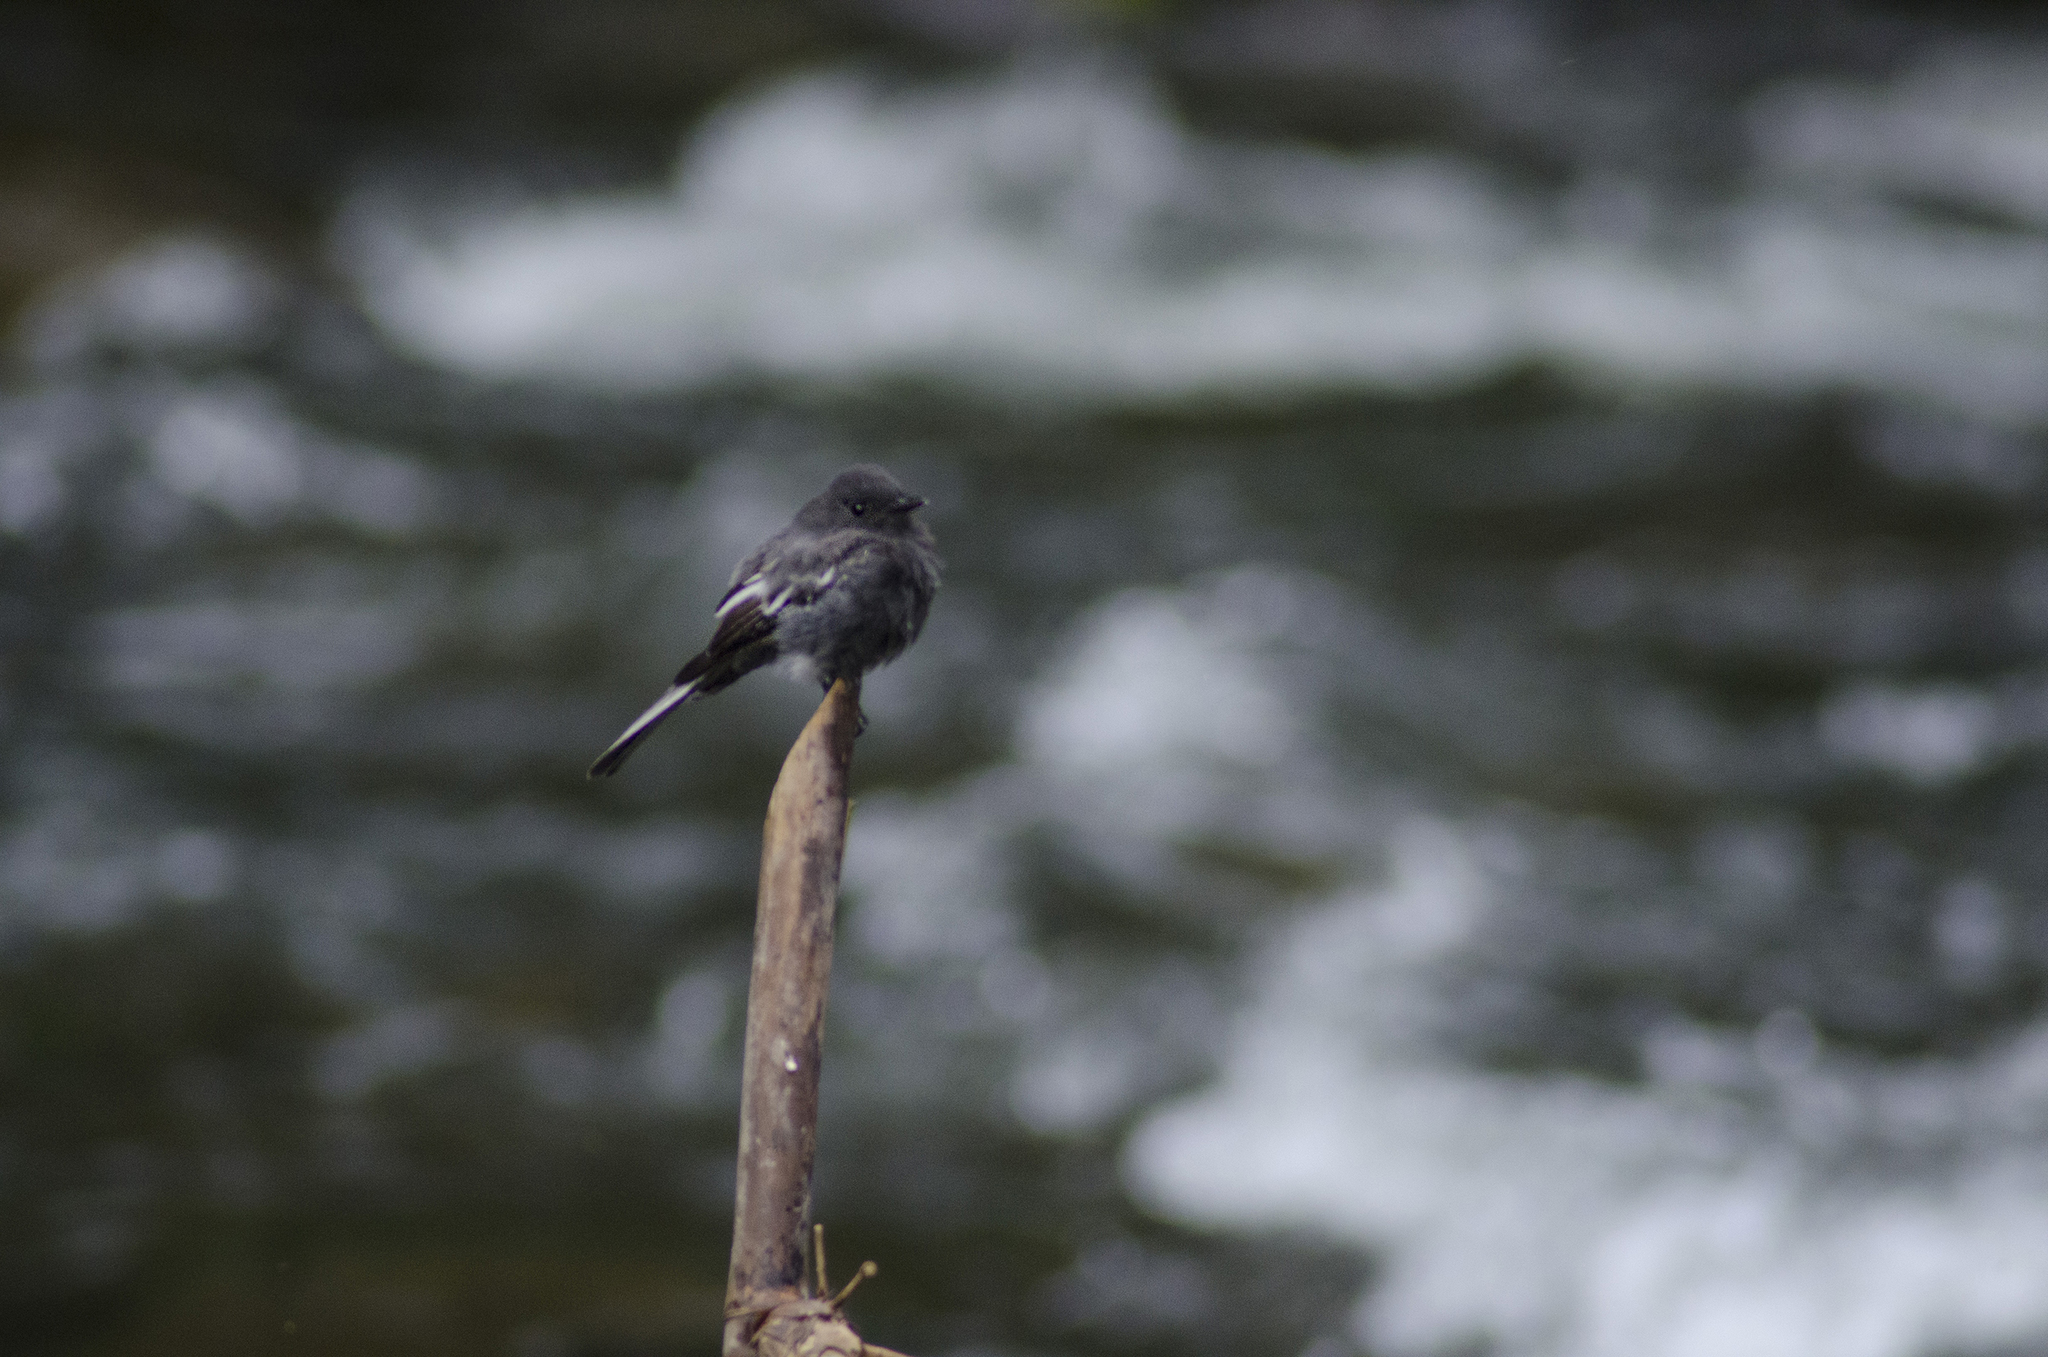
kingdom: Animalia
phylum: Chordata
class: Aves
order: Passeriformes
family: Tyrannidae
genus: Sayornis
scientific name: Sayornis nigricans
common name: Black phoebe
